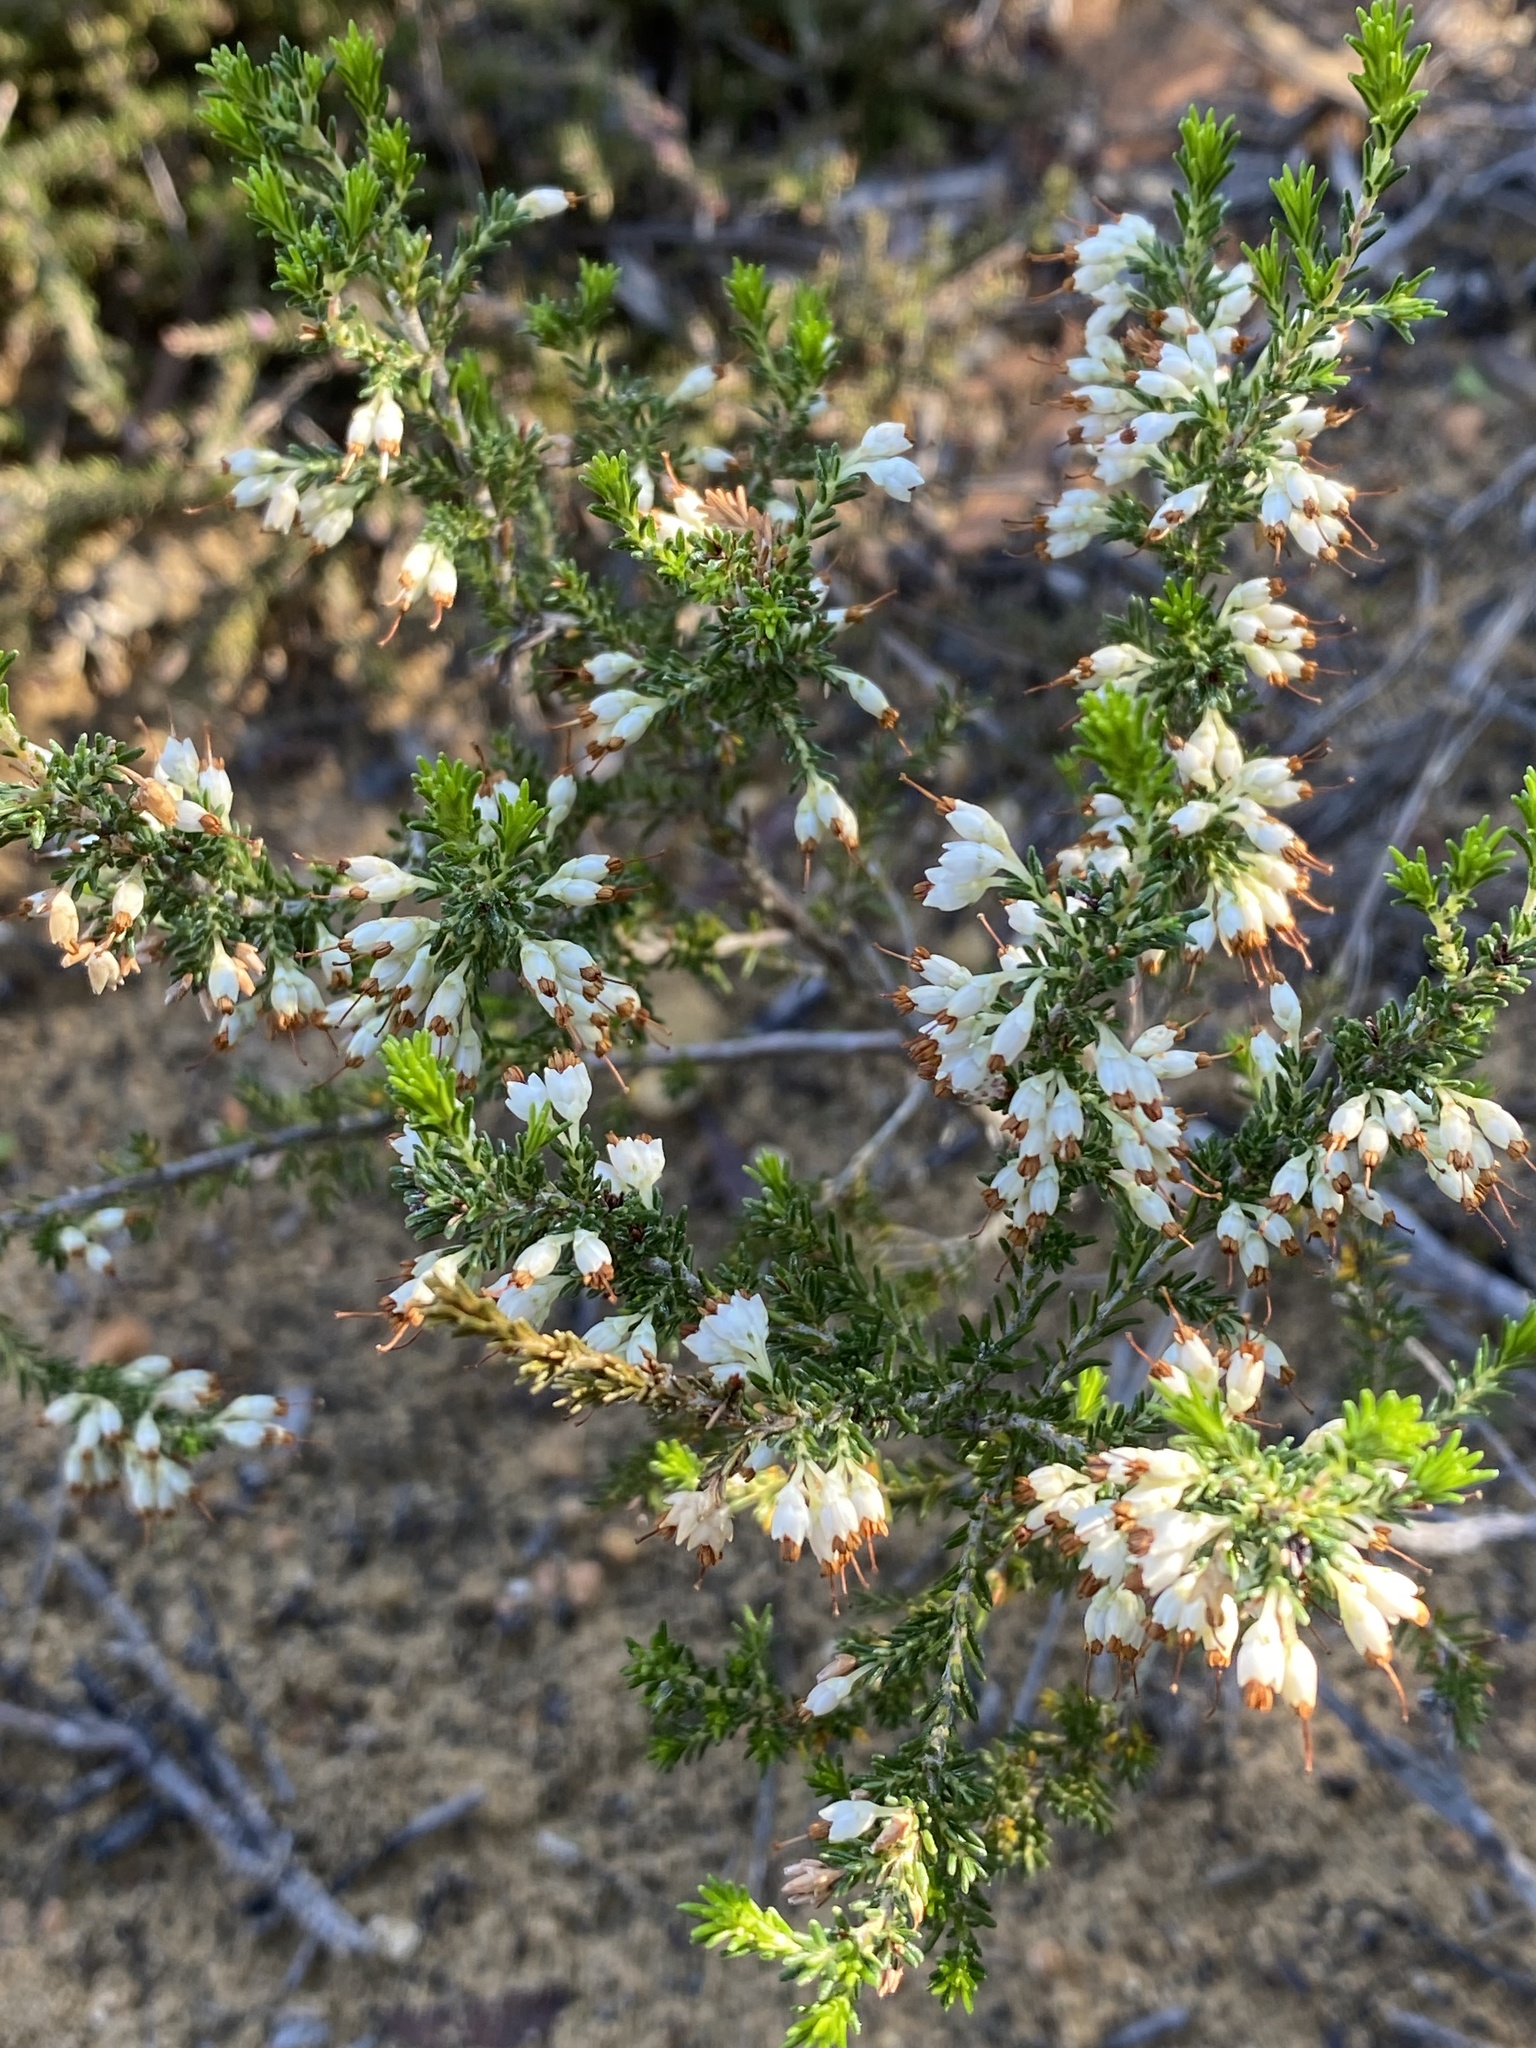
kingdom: Plantae
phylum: Tracheophyta
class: Magnoliopsida
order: Ericales
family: Ericaceae
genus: Erica
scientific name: Erica imbricata
